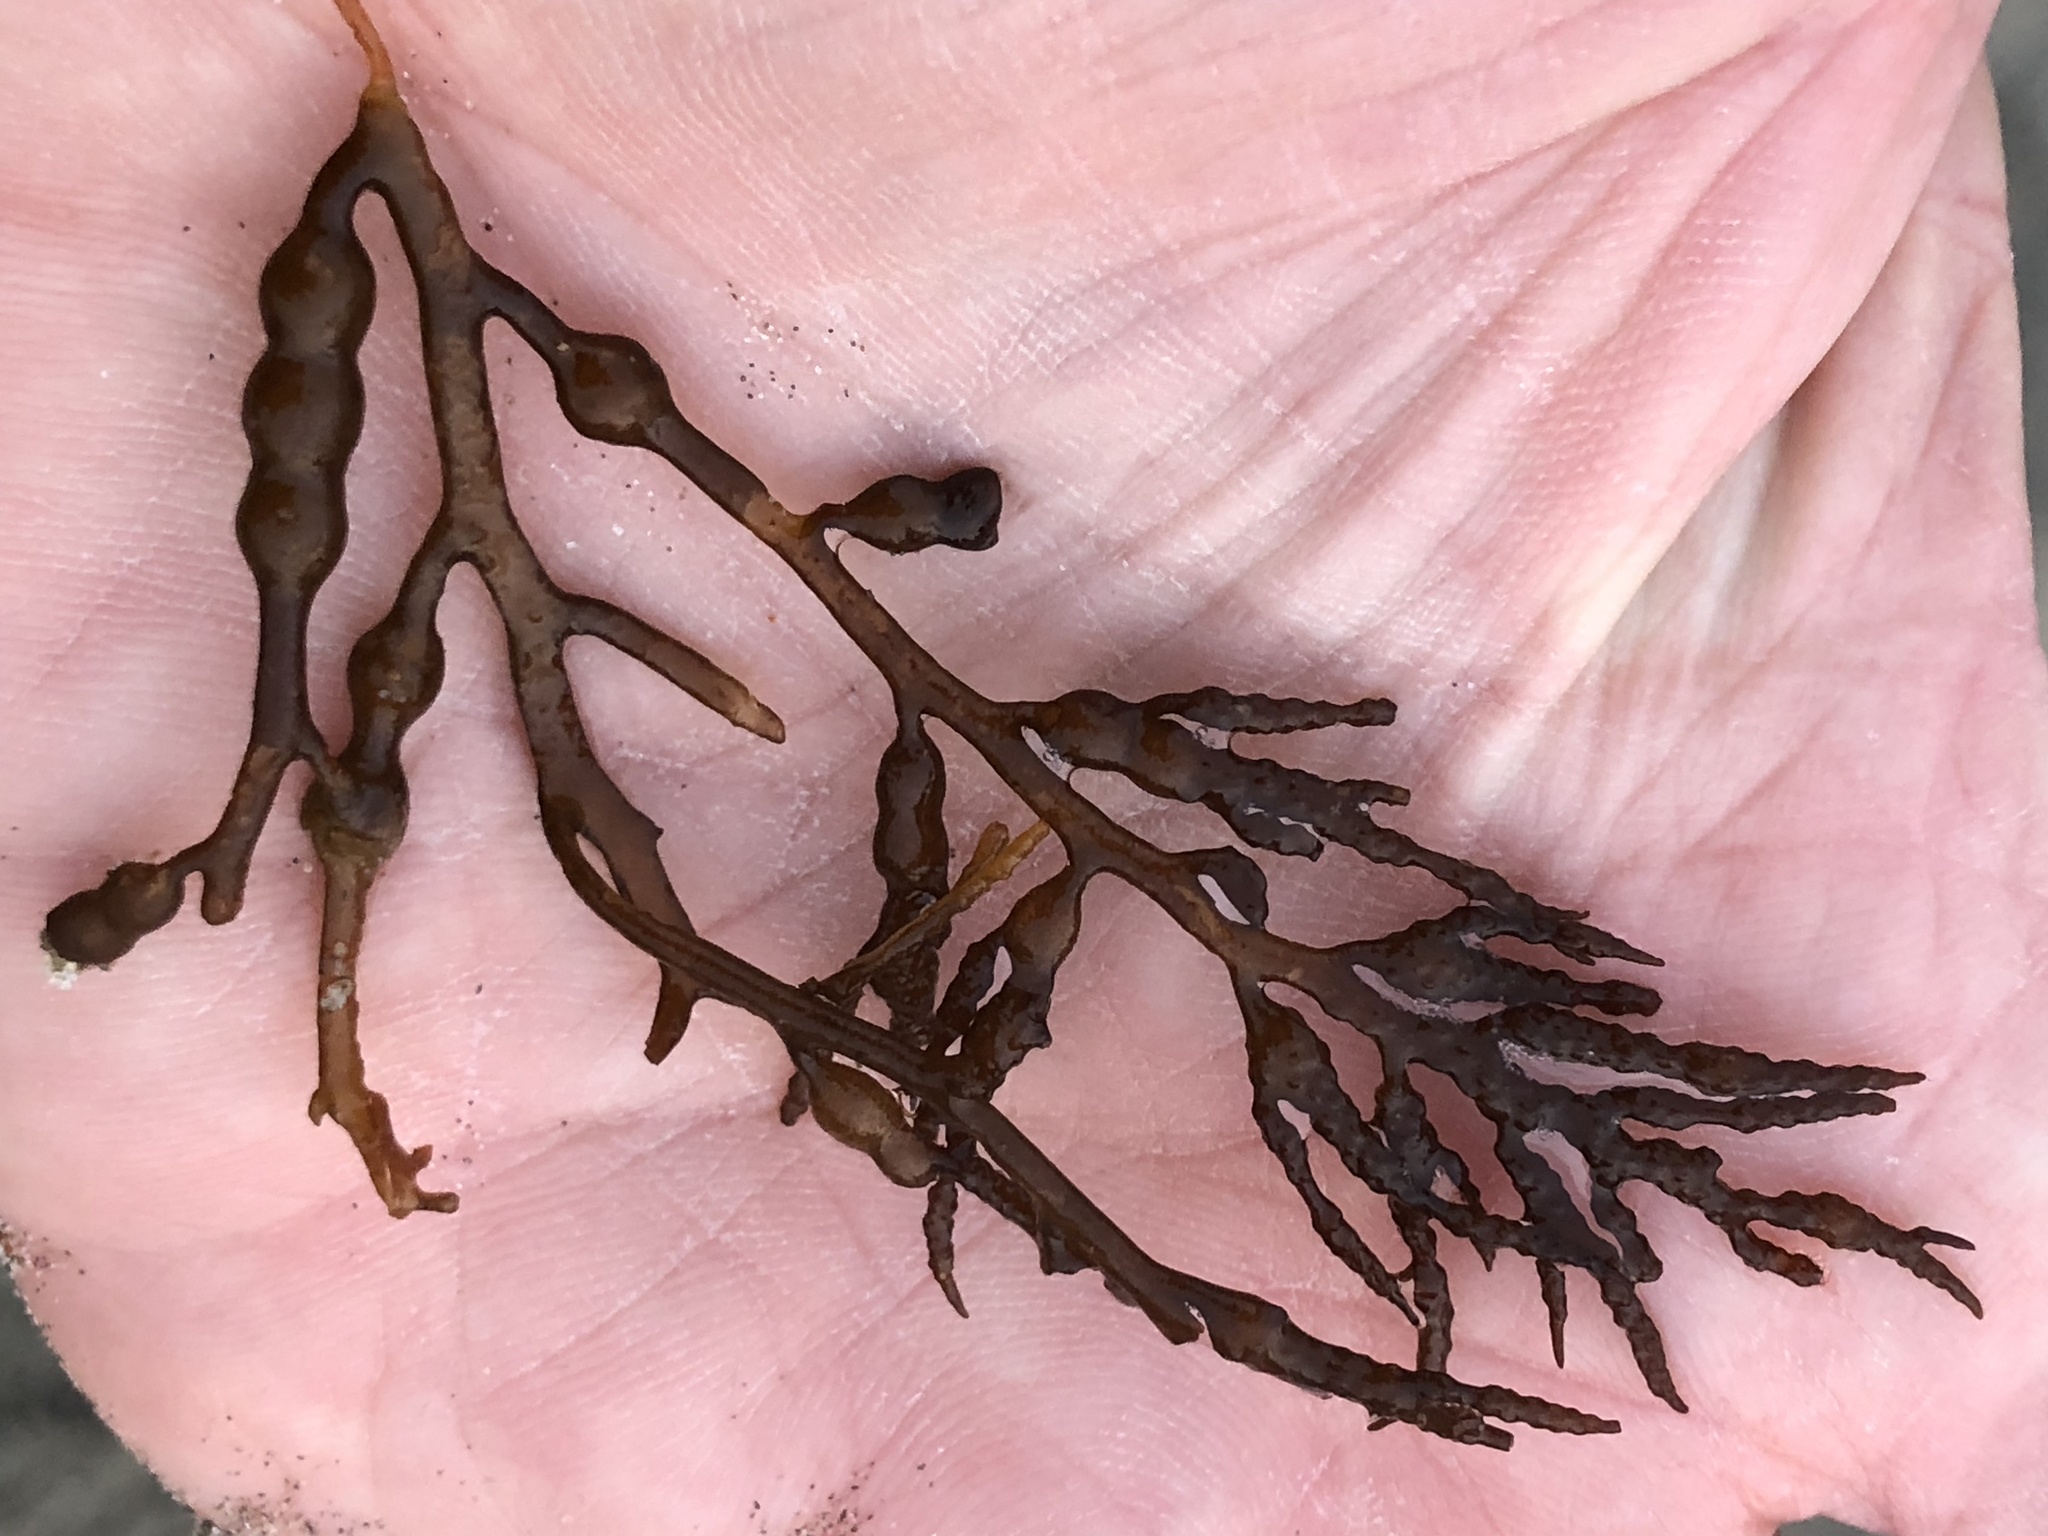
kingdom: Chromista
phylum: Ochrophyta
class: Phaeophyceae
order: Fucales
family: Sargassaceae
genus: Stephanocystis
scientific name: Stephanocystis
